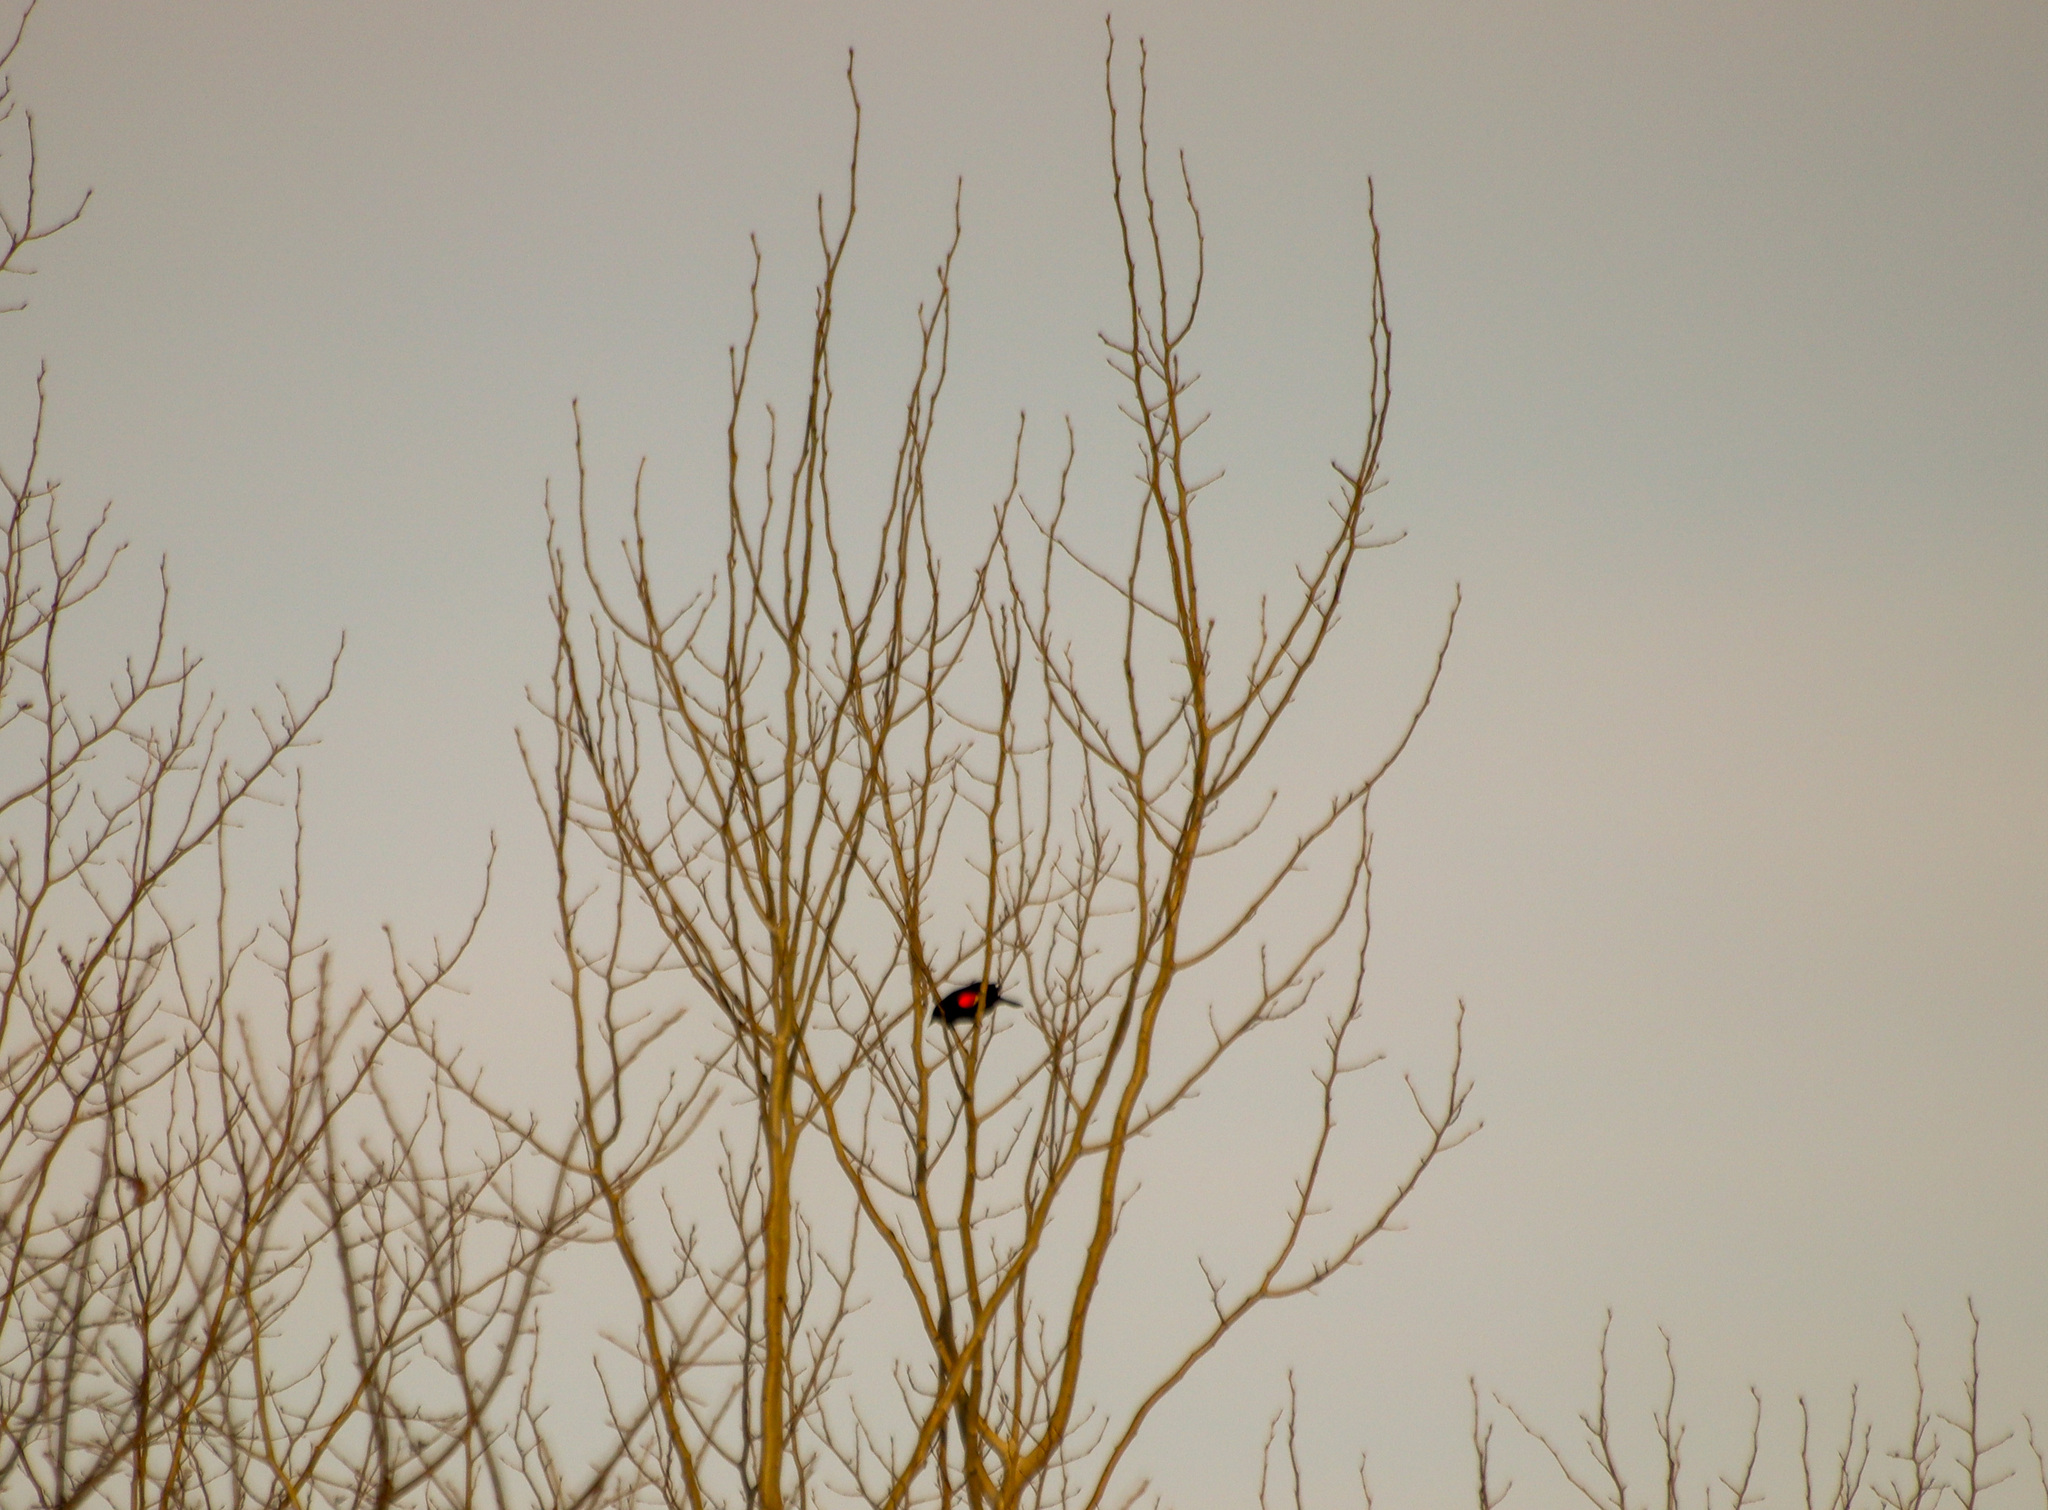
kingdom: Animalia
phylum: Chordata
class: Aves
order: Passeriformes
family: Icteridae
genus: Agelaius
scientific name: Agelaius phoeniceus
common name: Red-winged blackbird
